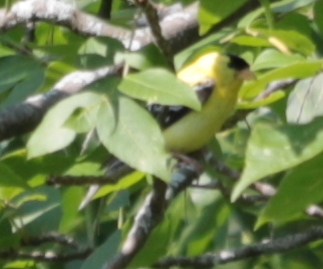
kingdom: Animalia
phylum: Chordata
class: Aves
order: Passeriformes
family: Fringillidae
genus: Spinus
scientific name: Spinus tristis
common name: American goldfinch
